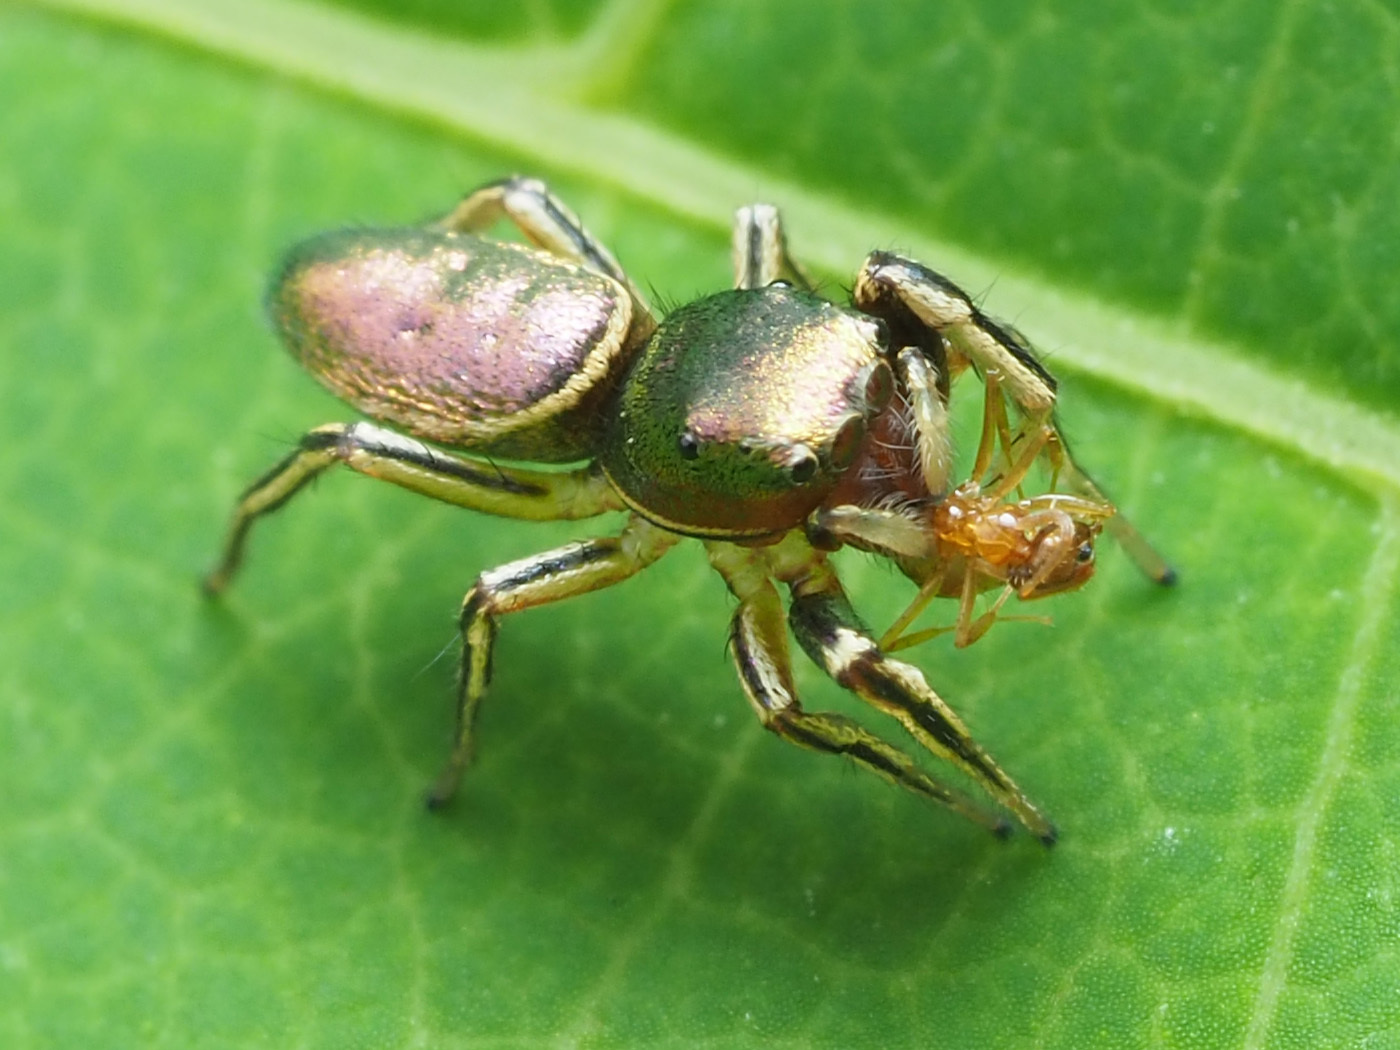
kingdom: Animalia
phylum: Arthropoda
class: Arachnida
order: Araneae
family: Salticidae
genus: Tutelina
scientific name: Tutelina elegans
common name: Thin-spined jumping spider
